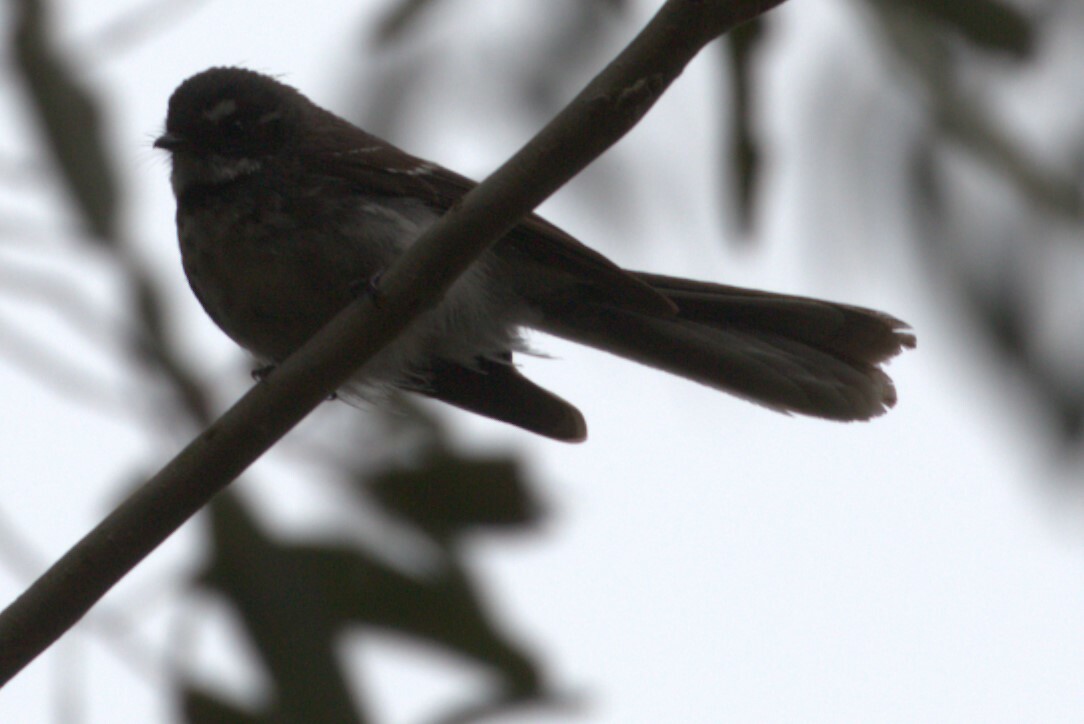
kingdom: Animalia
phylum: Chordata
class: Aves
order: Passeriformes
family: Rhipiduridae
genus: Rhipidura
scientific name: Rhipidura albiscapa
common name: Grey fantail
